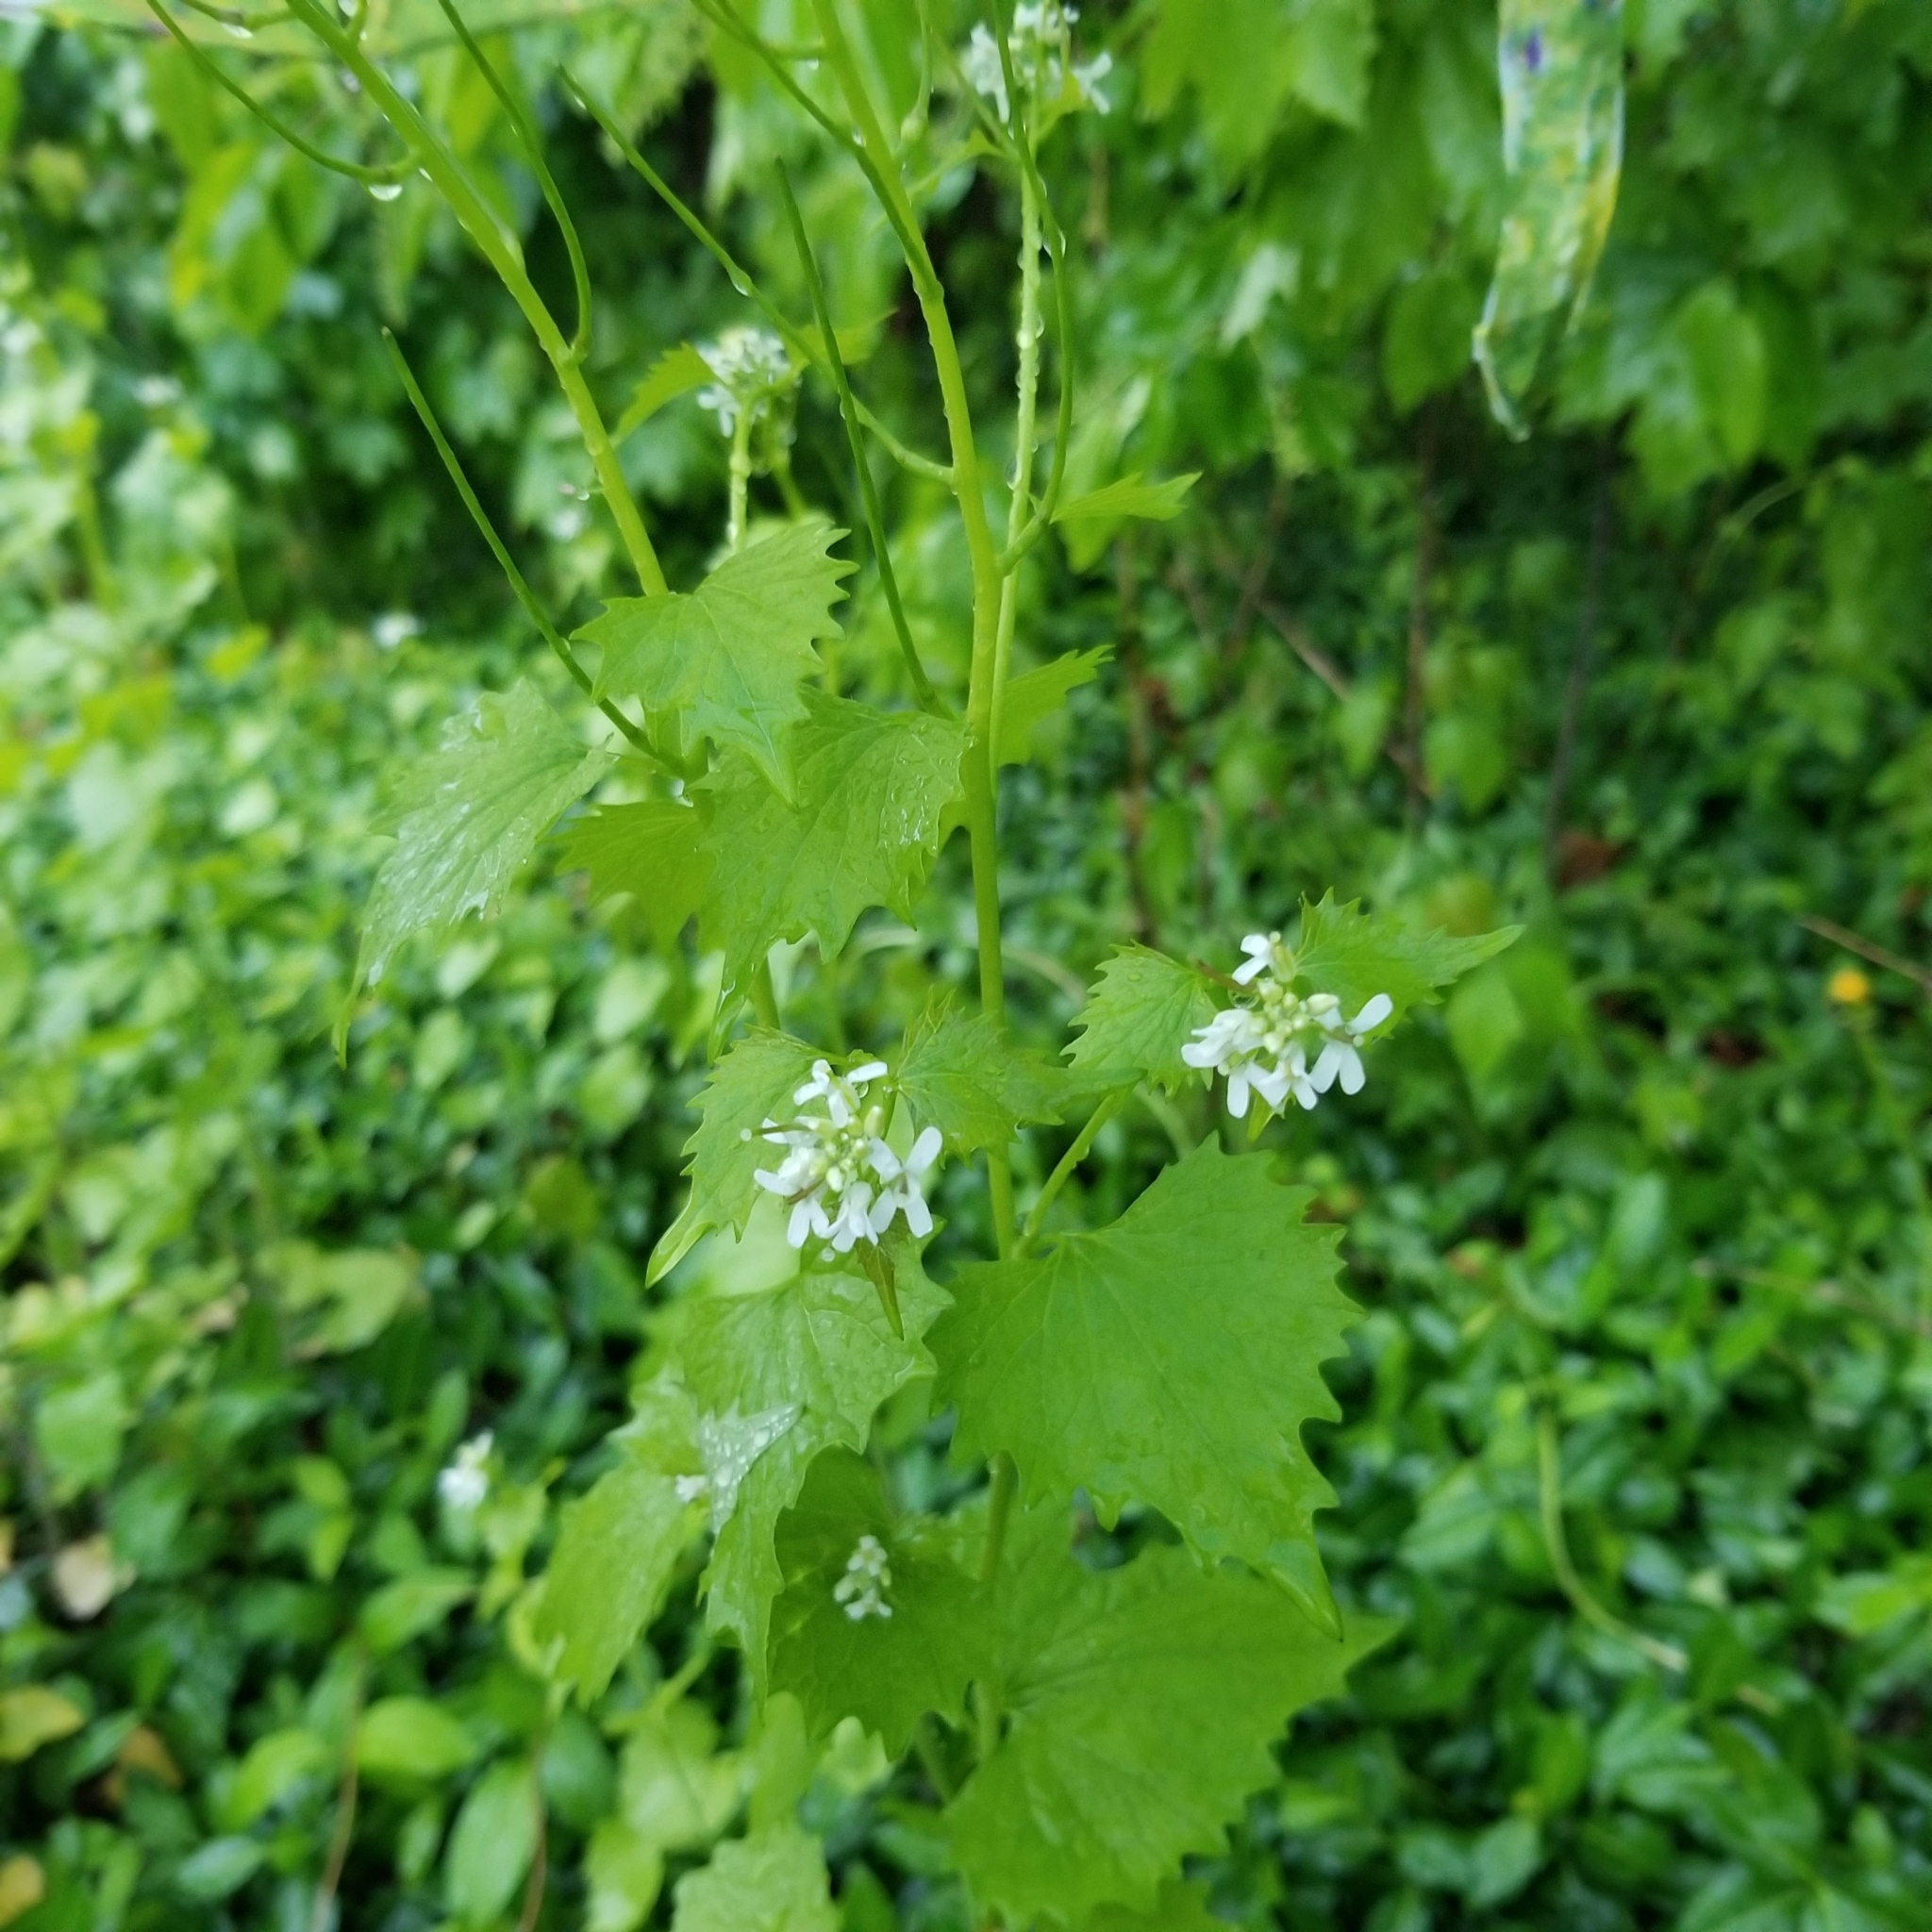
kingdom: Plantae
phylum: Tracheophyta
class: Magnoliopsida
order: Brassicales
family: Brassicaceae
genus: Alliaria
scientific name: Alliaria petiolata
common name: Garlic mustard
